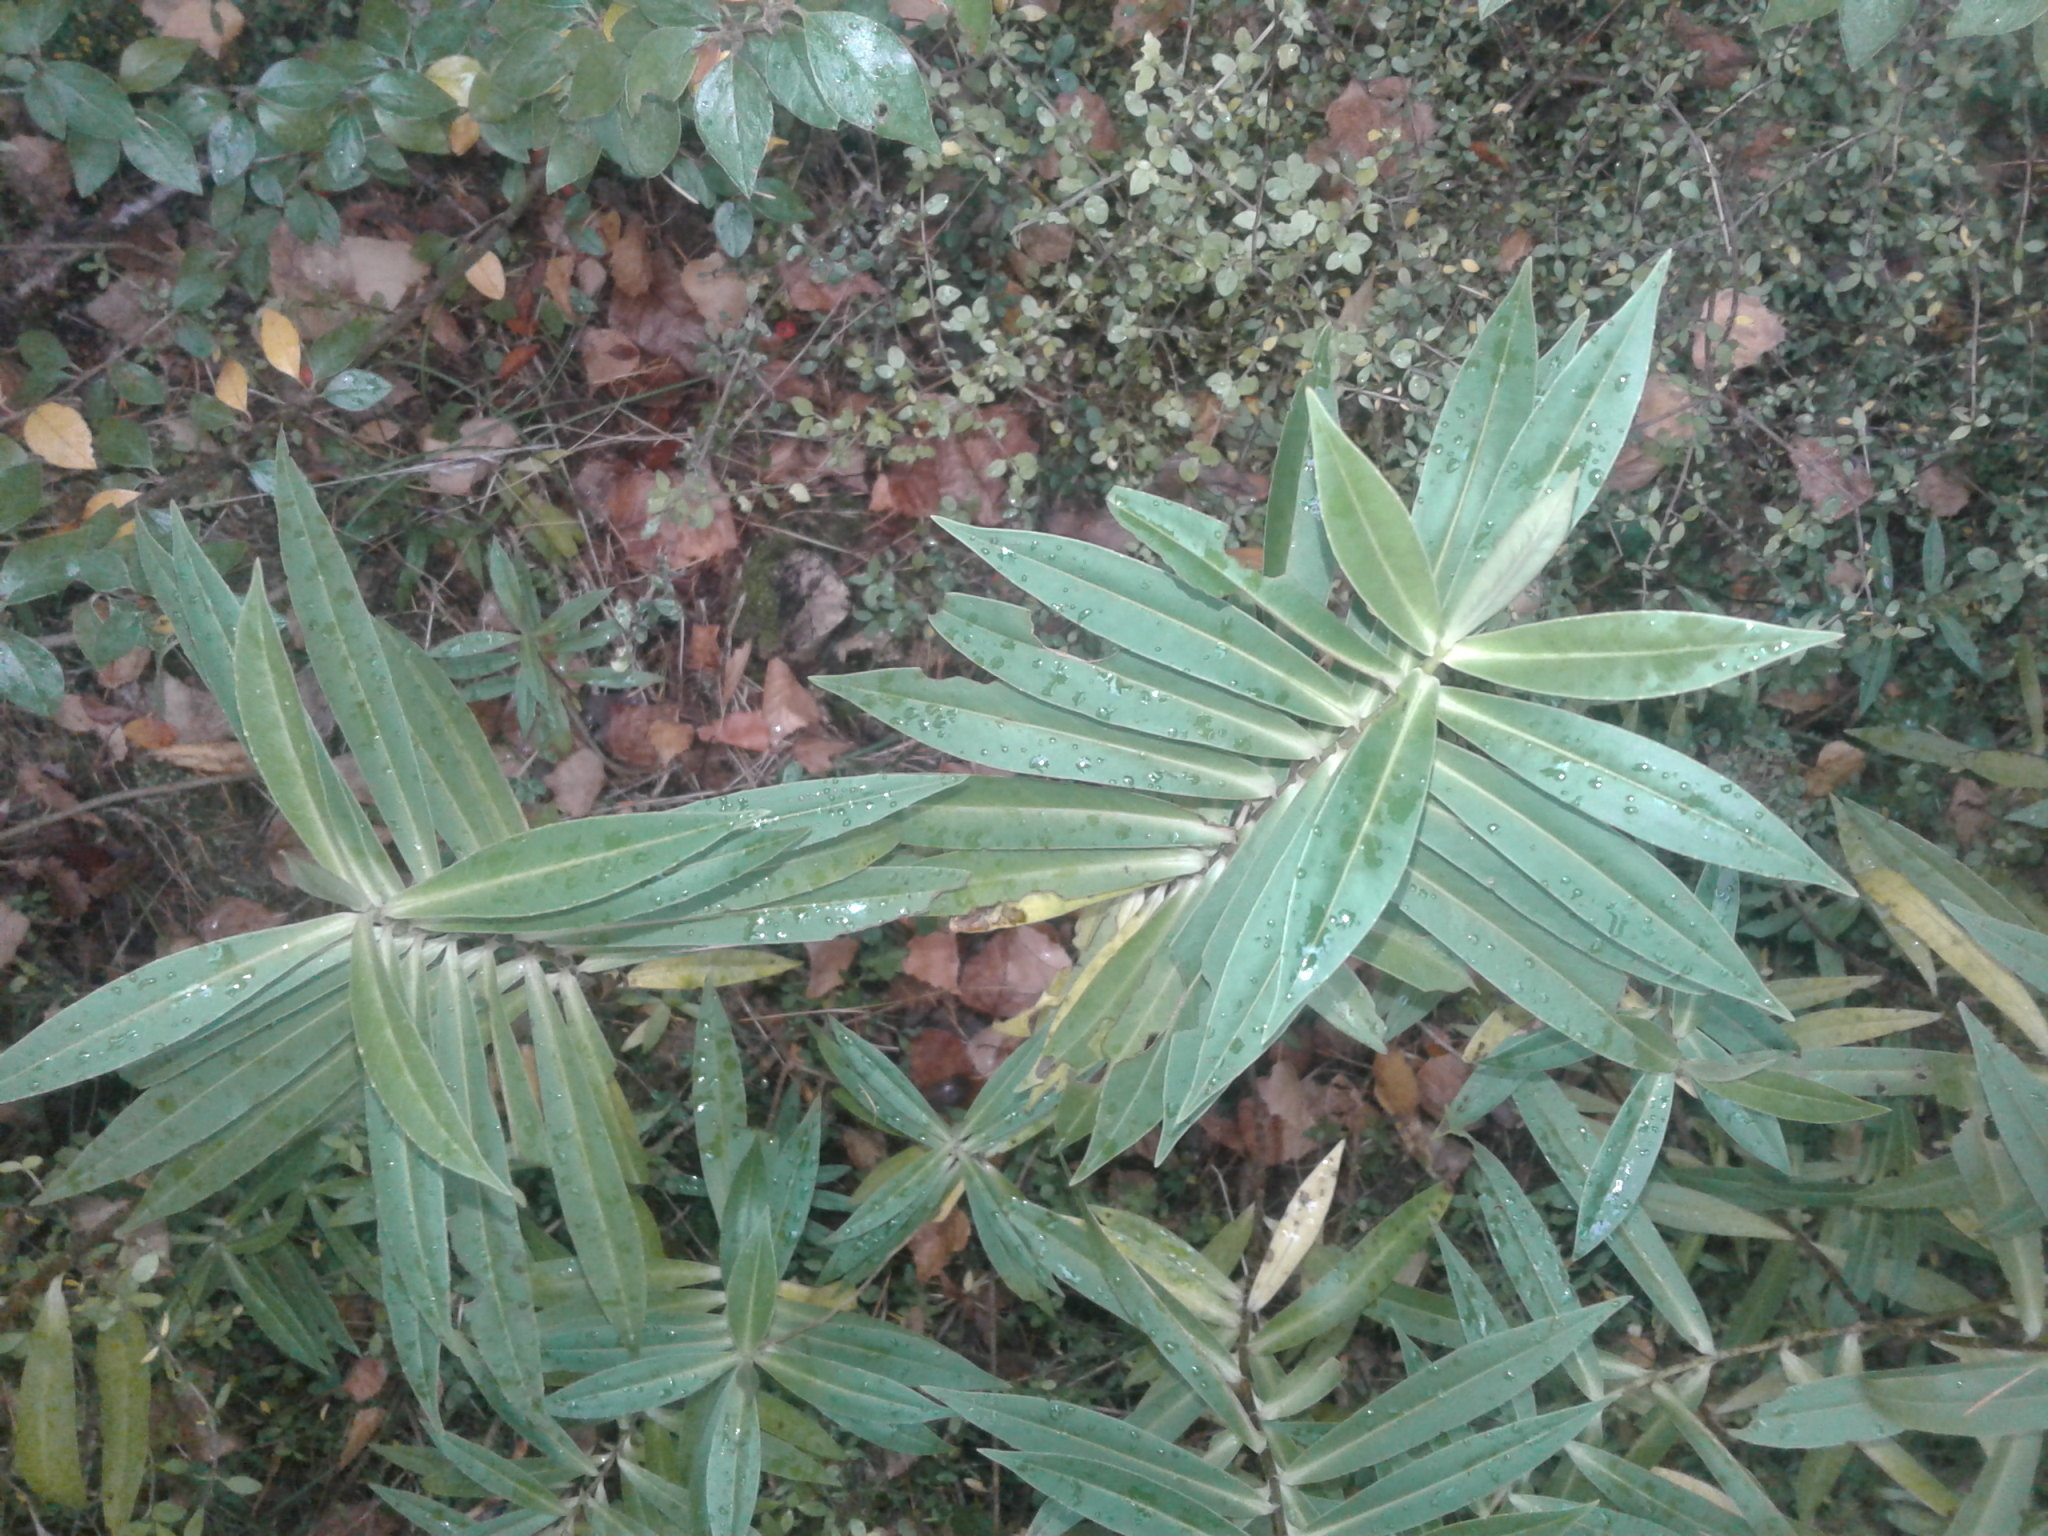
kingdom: Plantae
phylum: Tracheophyta
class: Magnoliopsida
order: Lamiales
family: Plantaginaceae
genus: Veronica
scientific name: Veronica salicifolia
